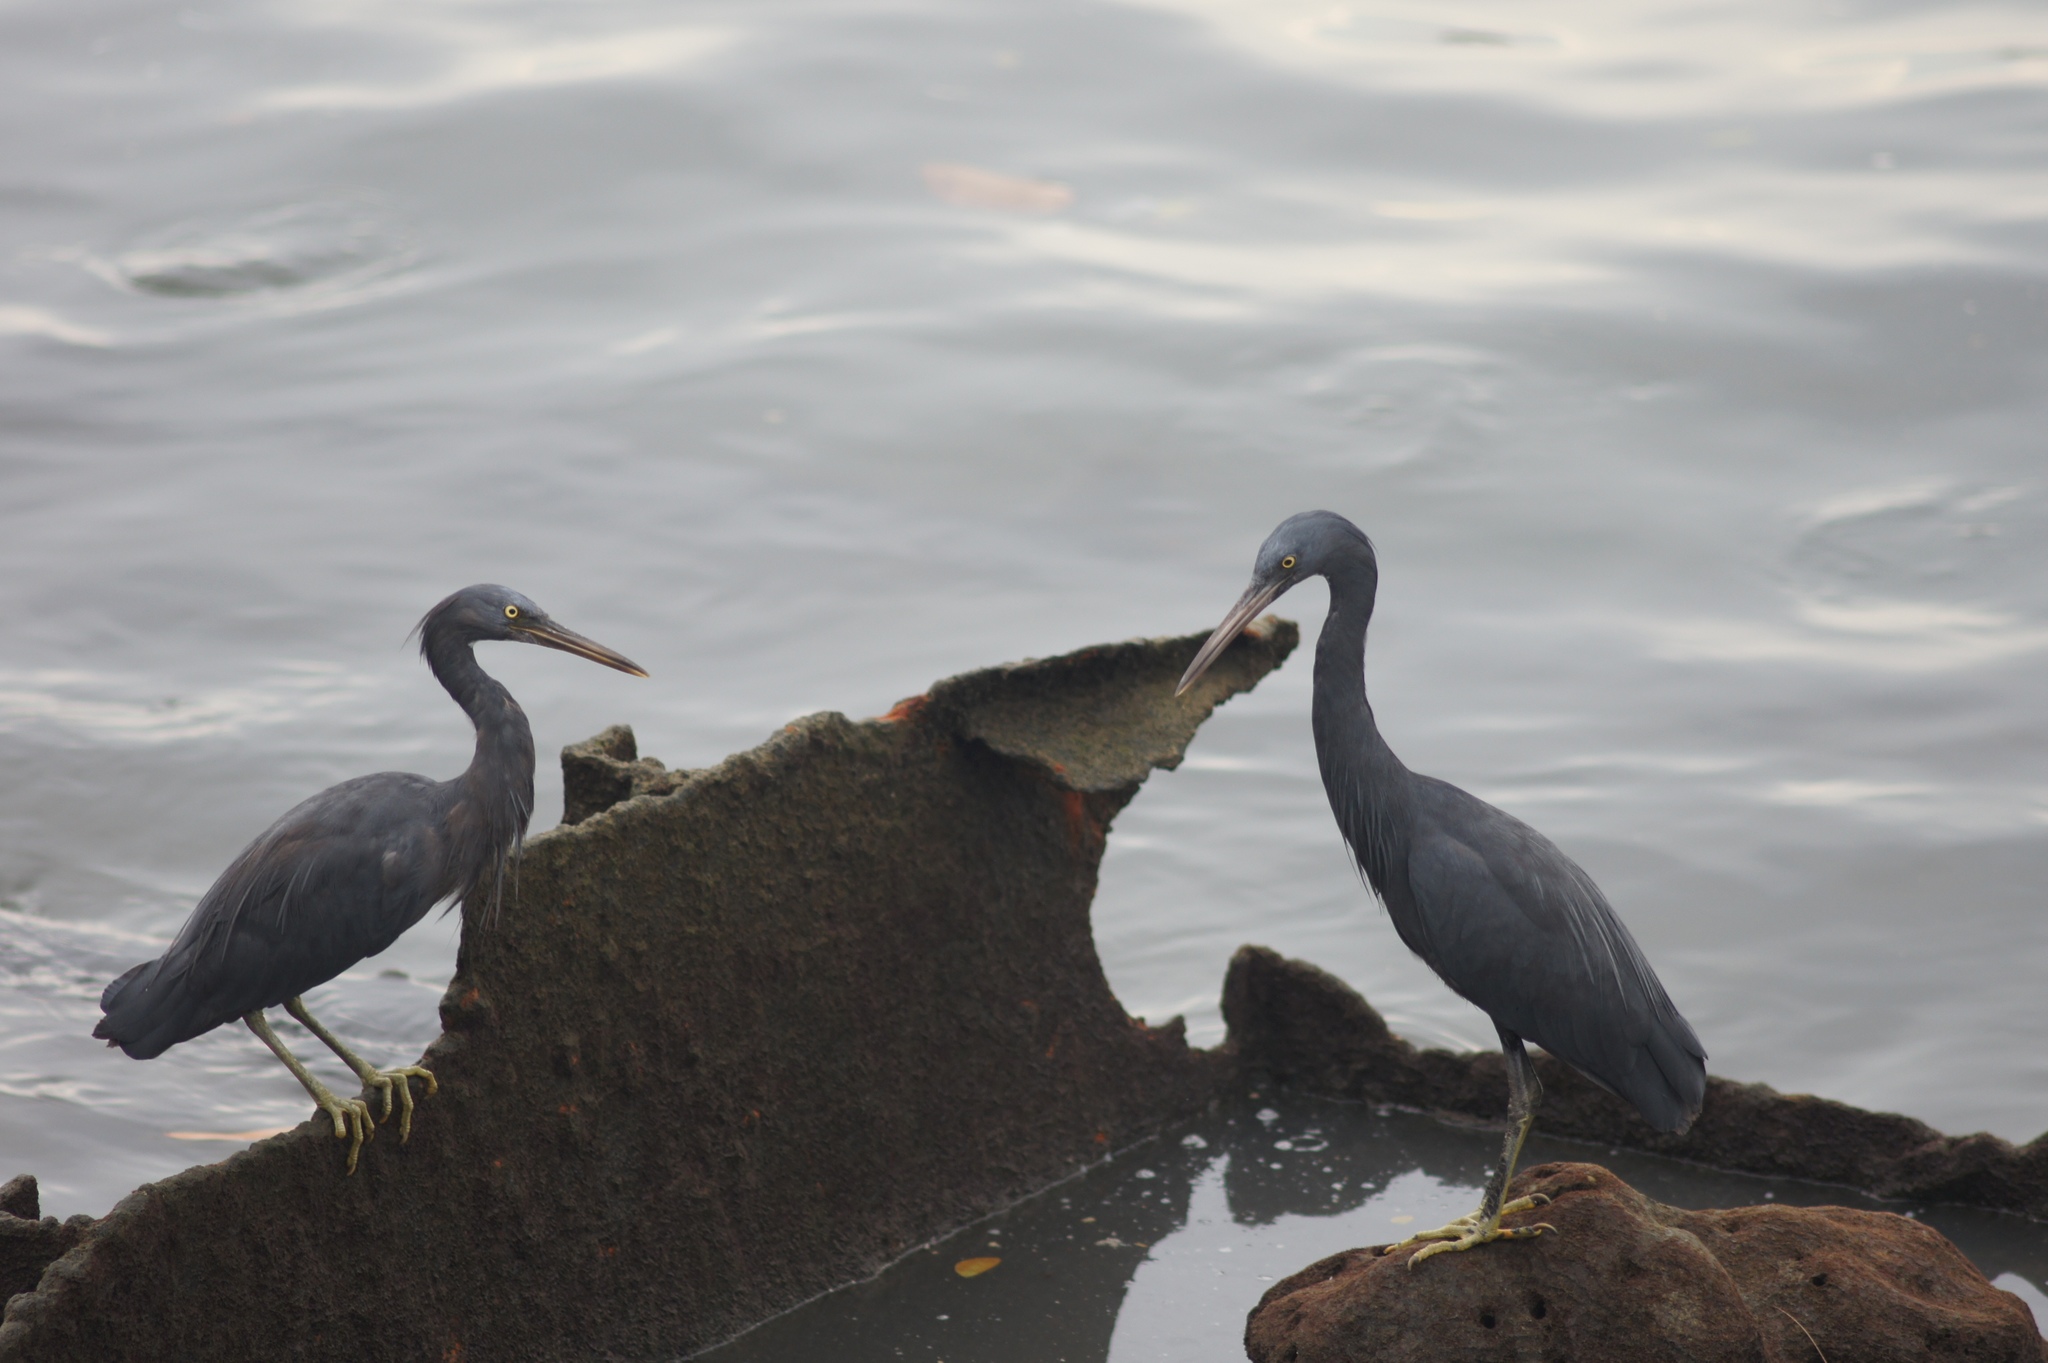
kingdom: Animalia
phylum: Chordata
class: Aves
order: Pelecaniformes
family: Ardeidae
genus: Egretta
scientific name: Egretta sacra
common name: Pacific reef heron
